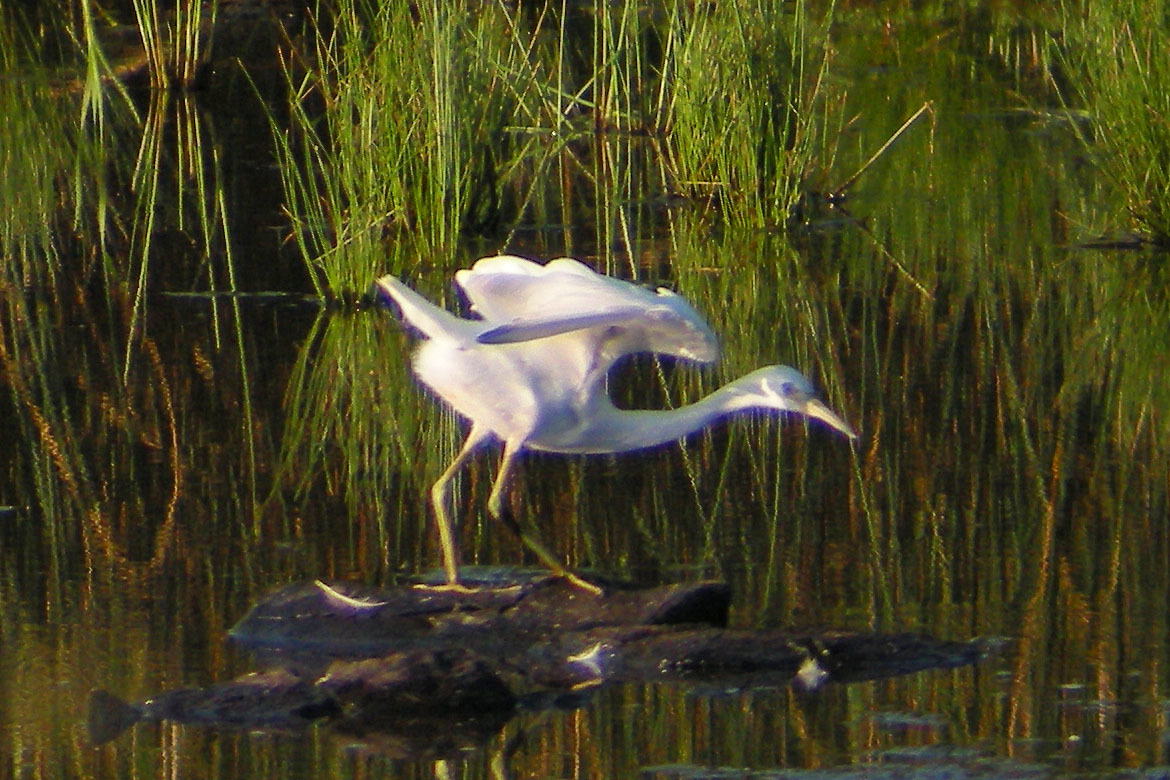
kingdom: Animalia
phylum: Chordata
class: Aves
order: Pelecaniformes
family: Ardeidae
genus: Egretta
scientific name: Egretta caerulea
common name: Little blue heron
